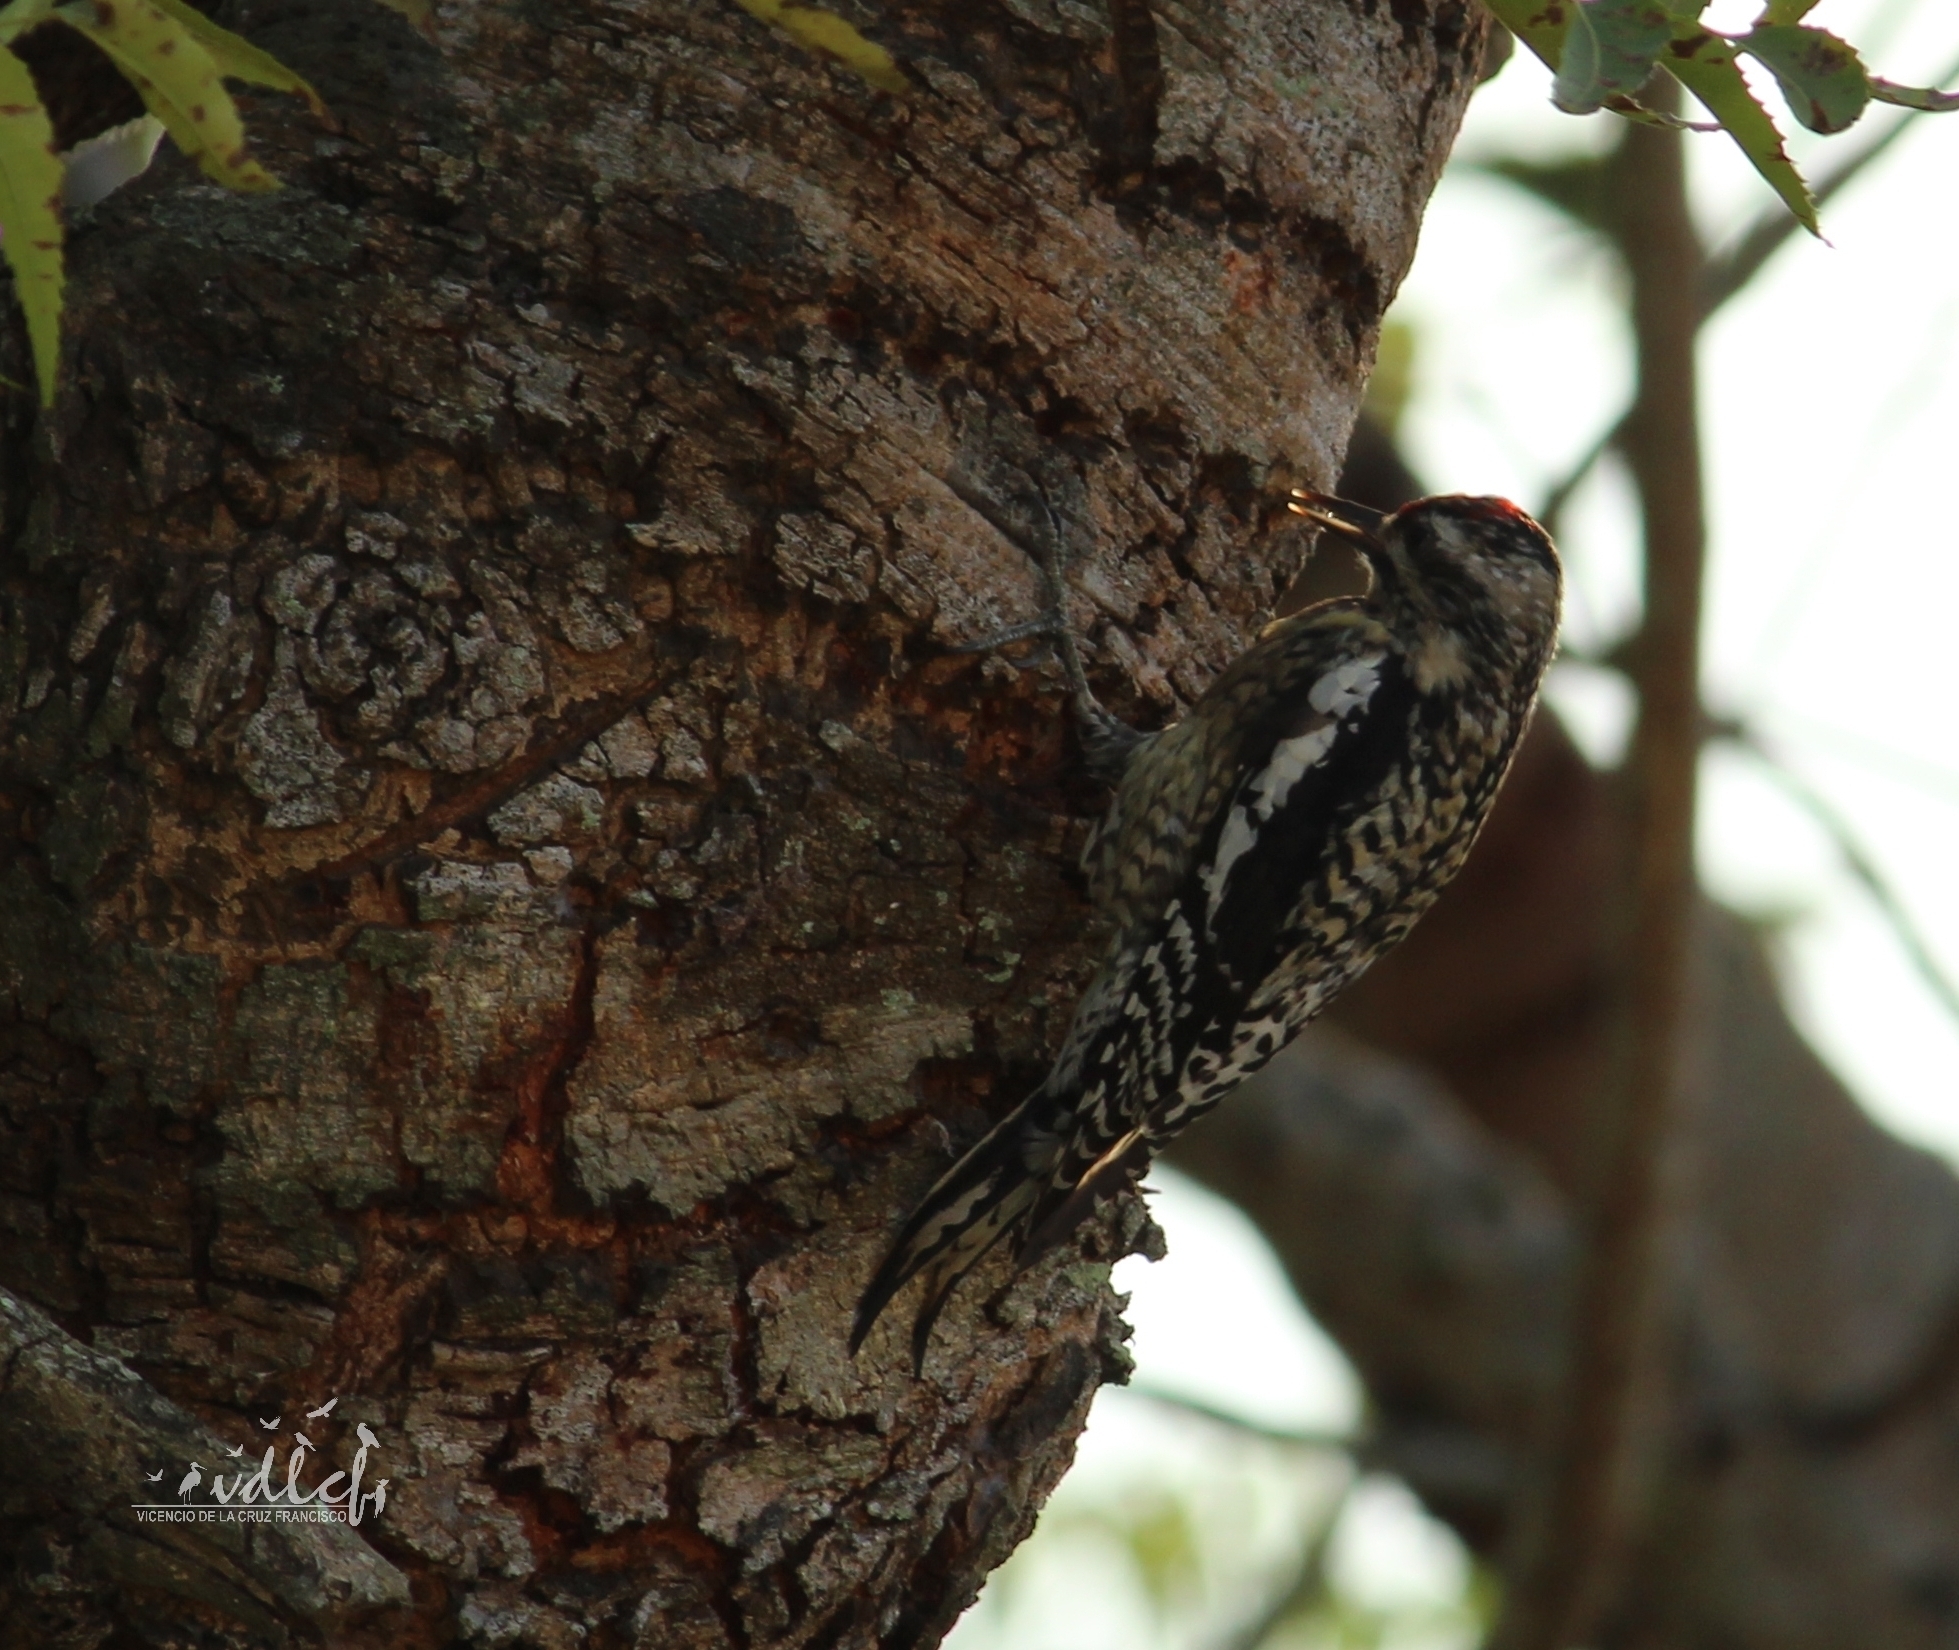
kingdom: Animalia
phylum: Chordata
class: Aves
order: Piciformes
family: Picidae
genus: Sphyrapicus
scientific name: Sphyrapicus varius
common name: Yellow-bellied sapsucker
